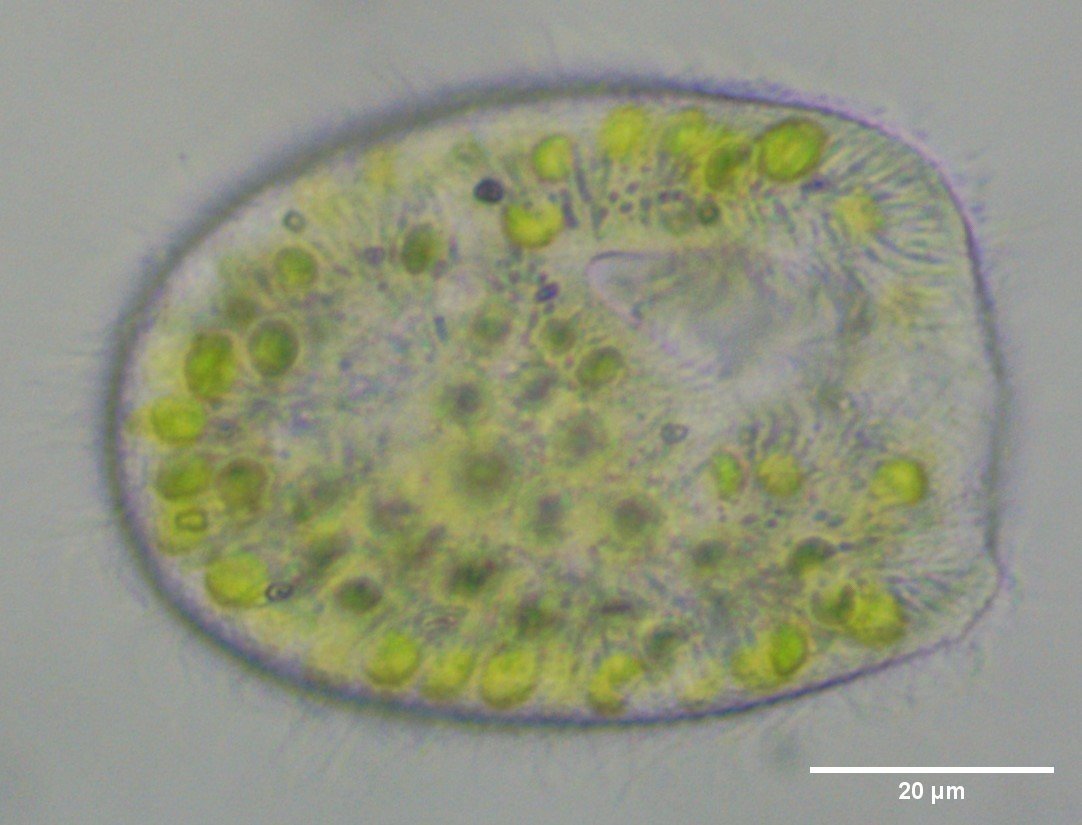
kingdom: Chromista
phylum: Ciliophora
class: Oligohymenophorea
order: Peniculida
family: Parameciidae
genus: Paramecium
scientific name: Paramecium
